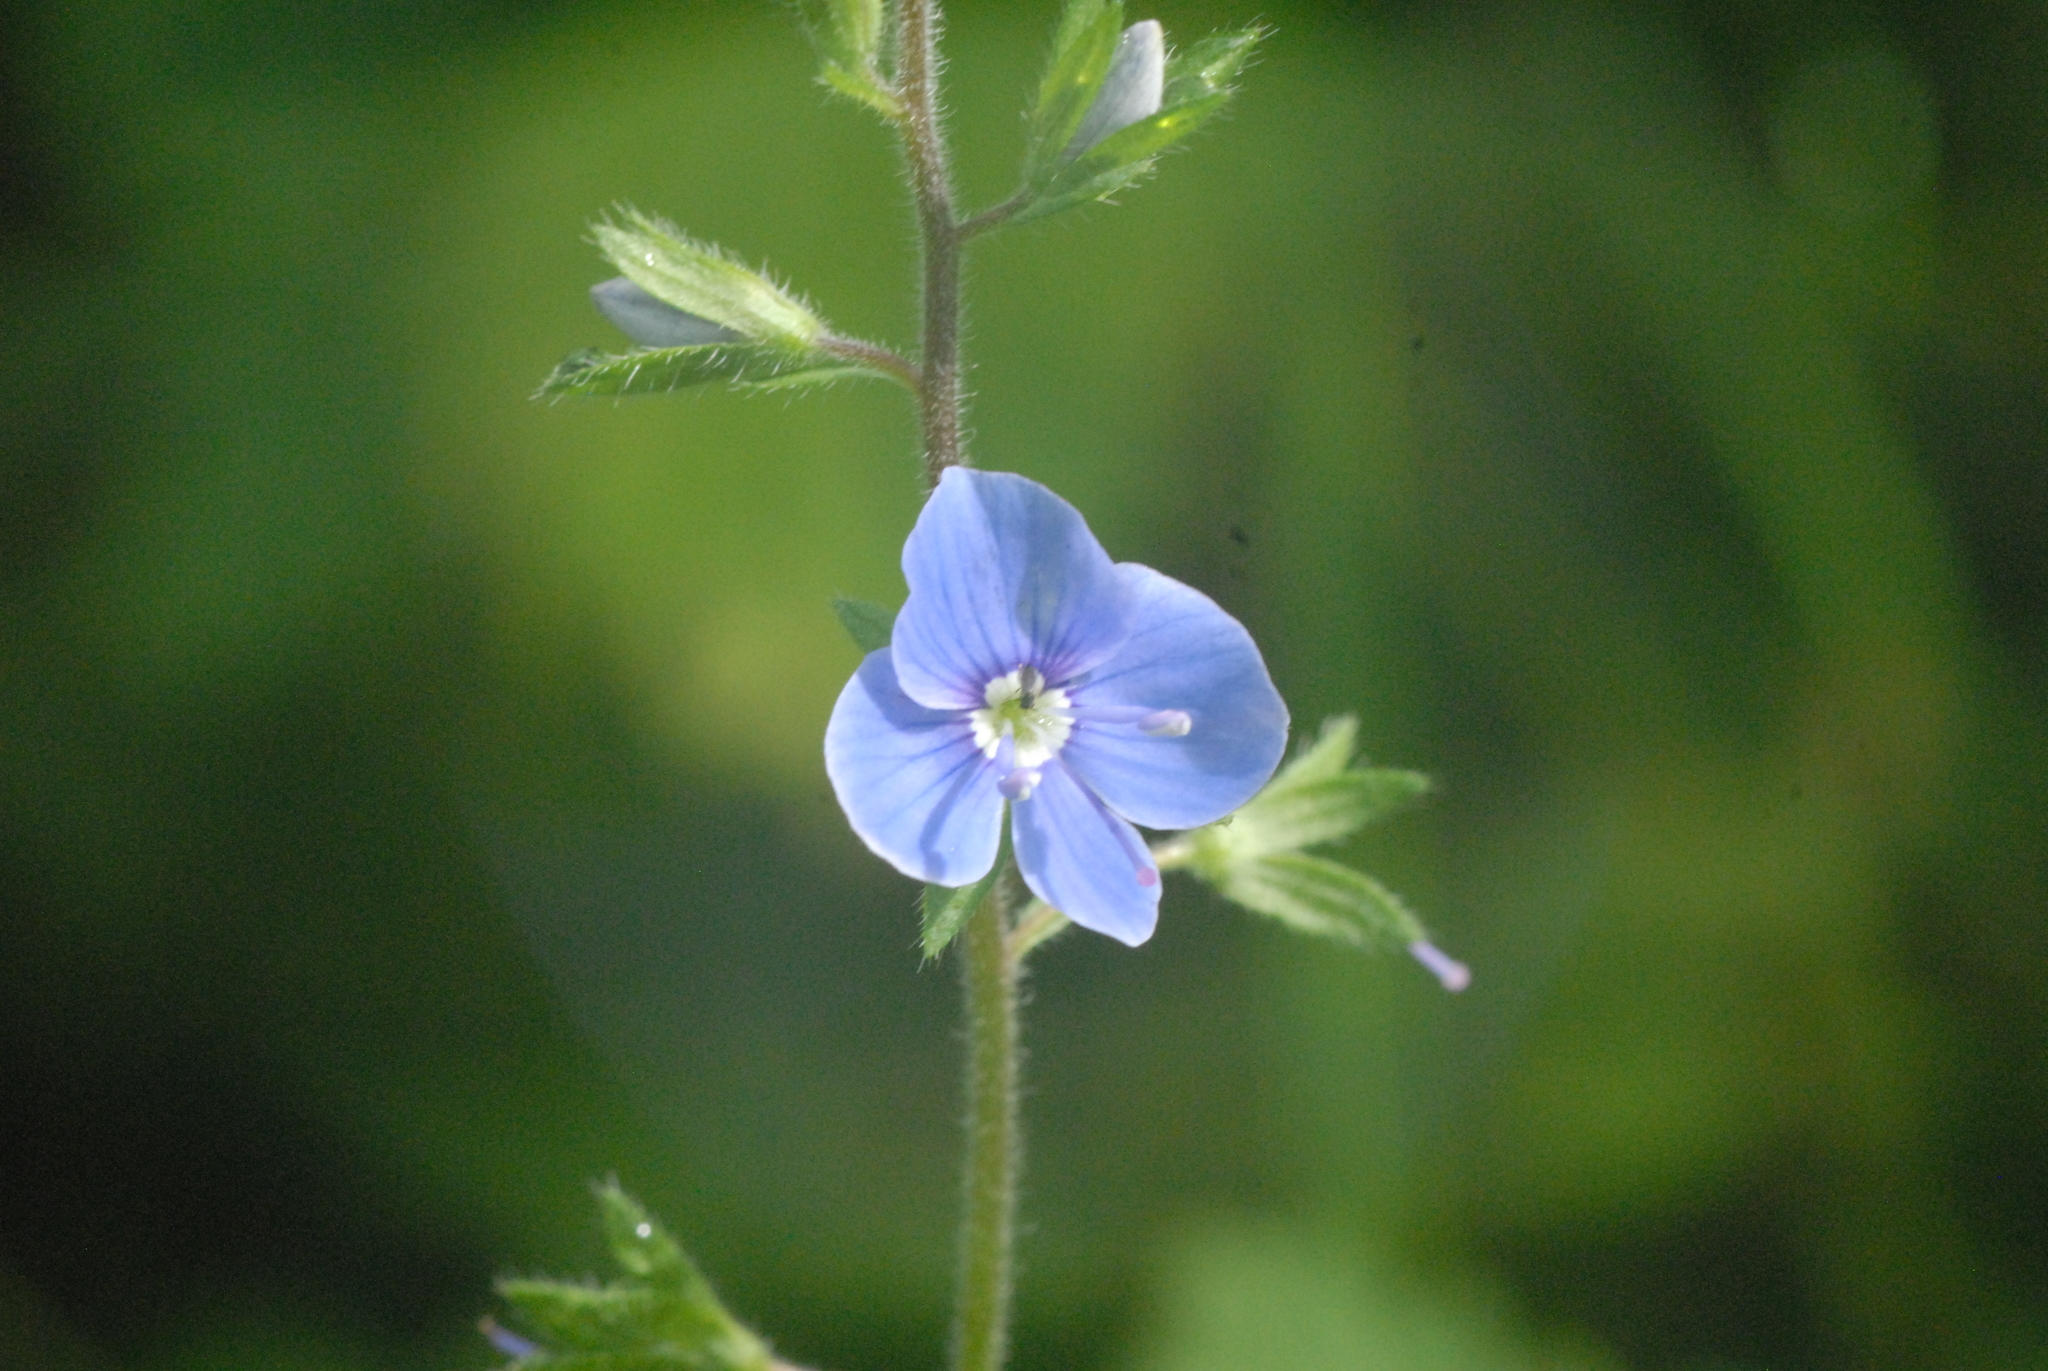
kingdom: Plantae
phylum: Tracheophyta
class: Magnoliopsida
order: Lamiales
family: Plantaginaceae
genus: Veronica
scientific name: Veronica chamaedrys
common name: Germander speedwell
